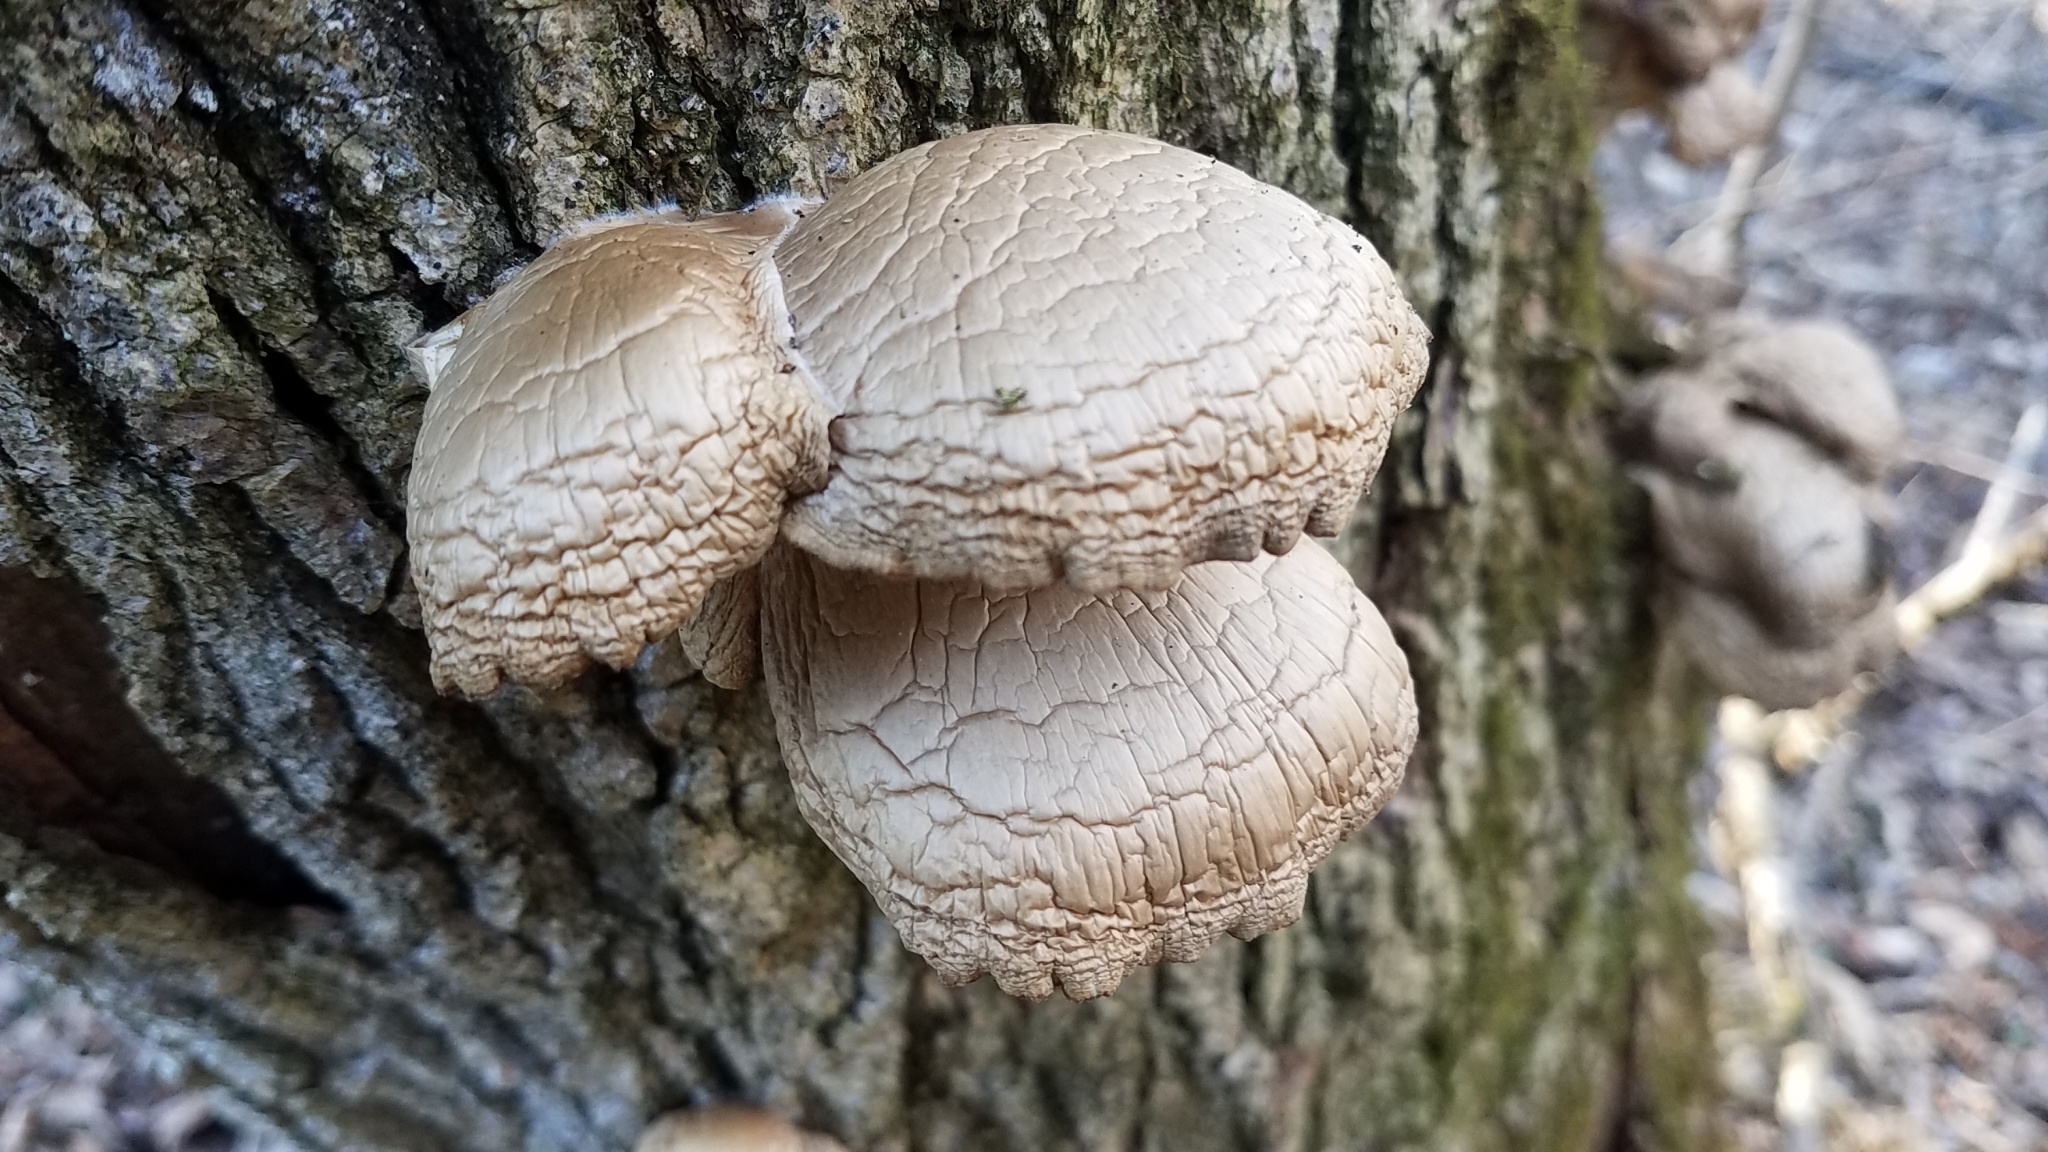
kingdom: Fungi
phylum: Basidiomycota
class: Agaricomycetes
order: Agaricales
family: Pleurotaceae
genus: Pleurotus
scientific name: Pleurotus populinus
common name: Aspen oyster mushroom
